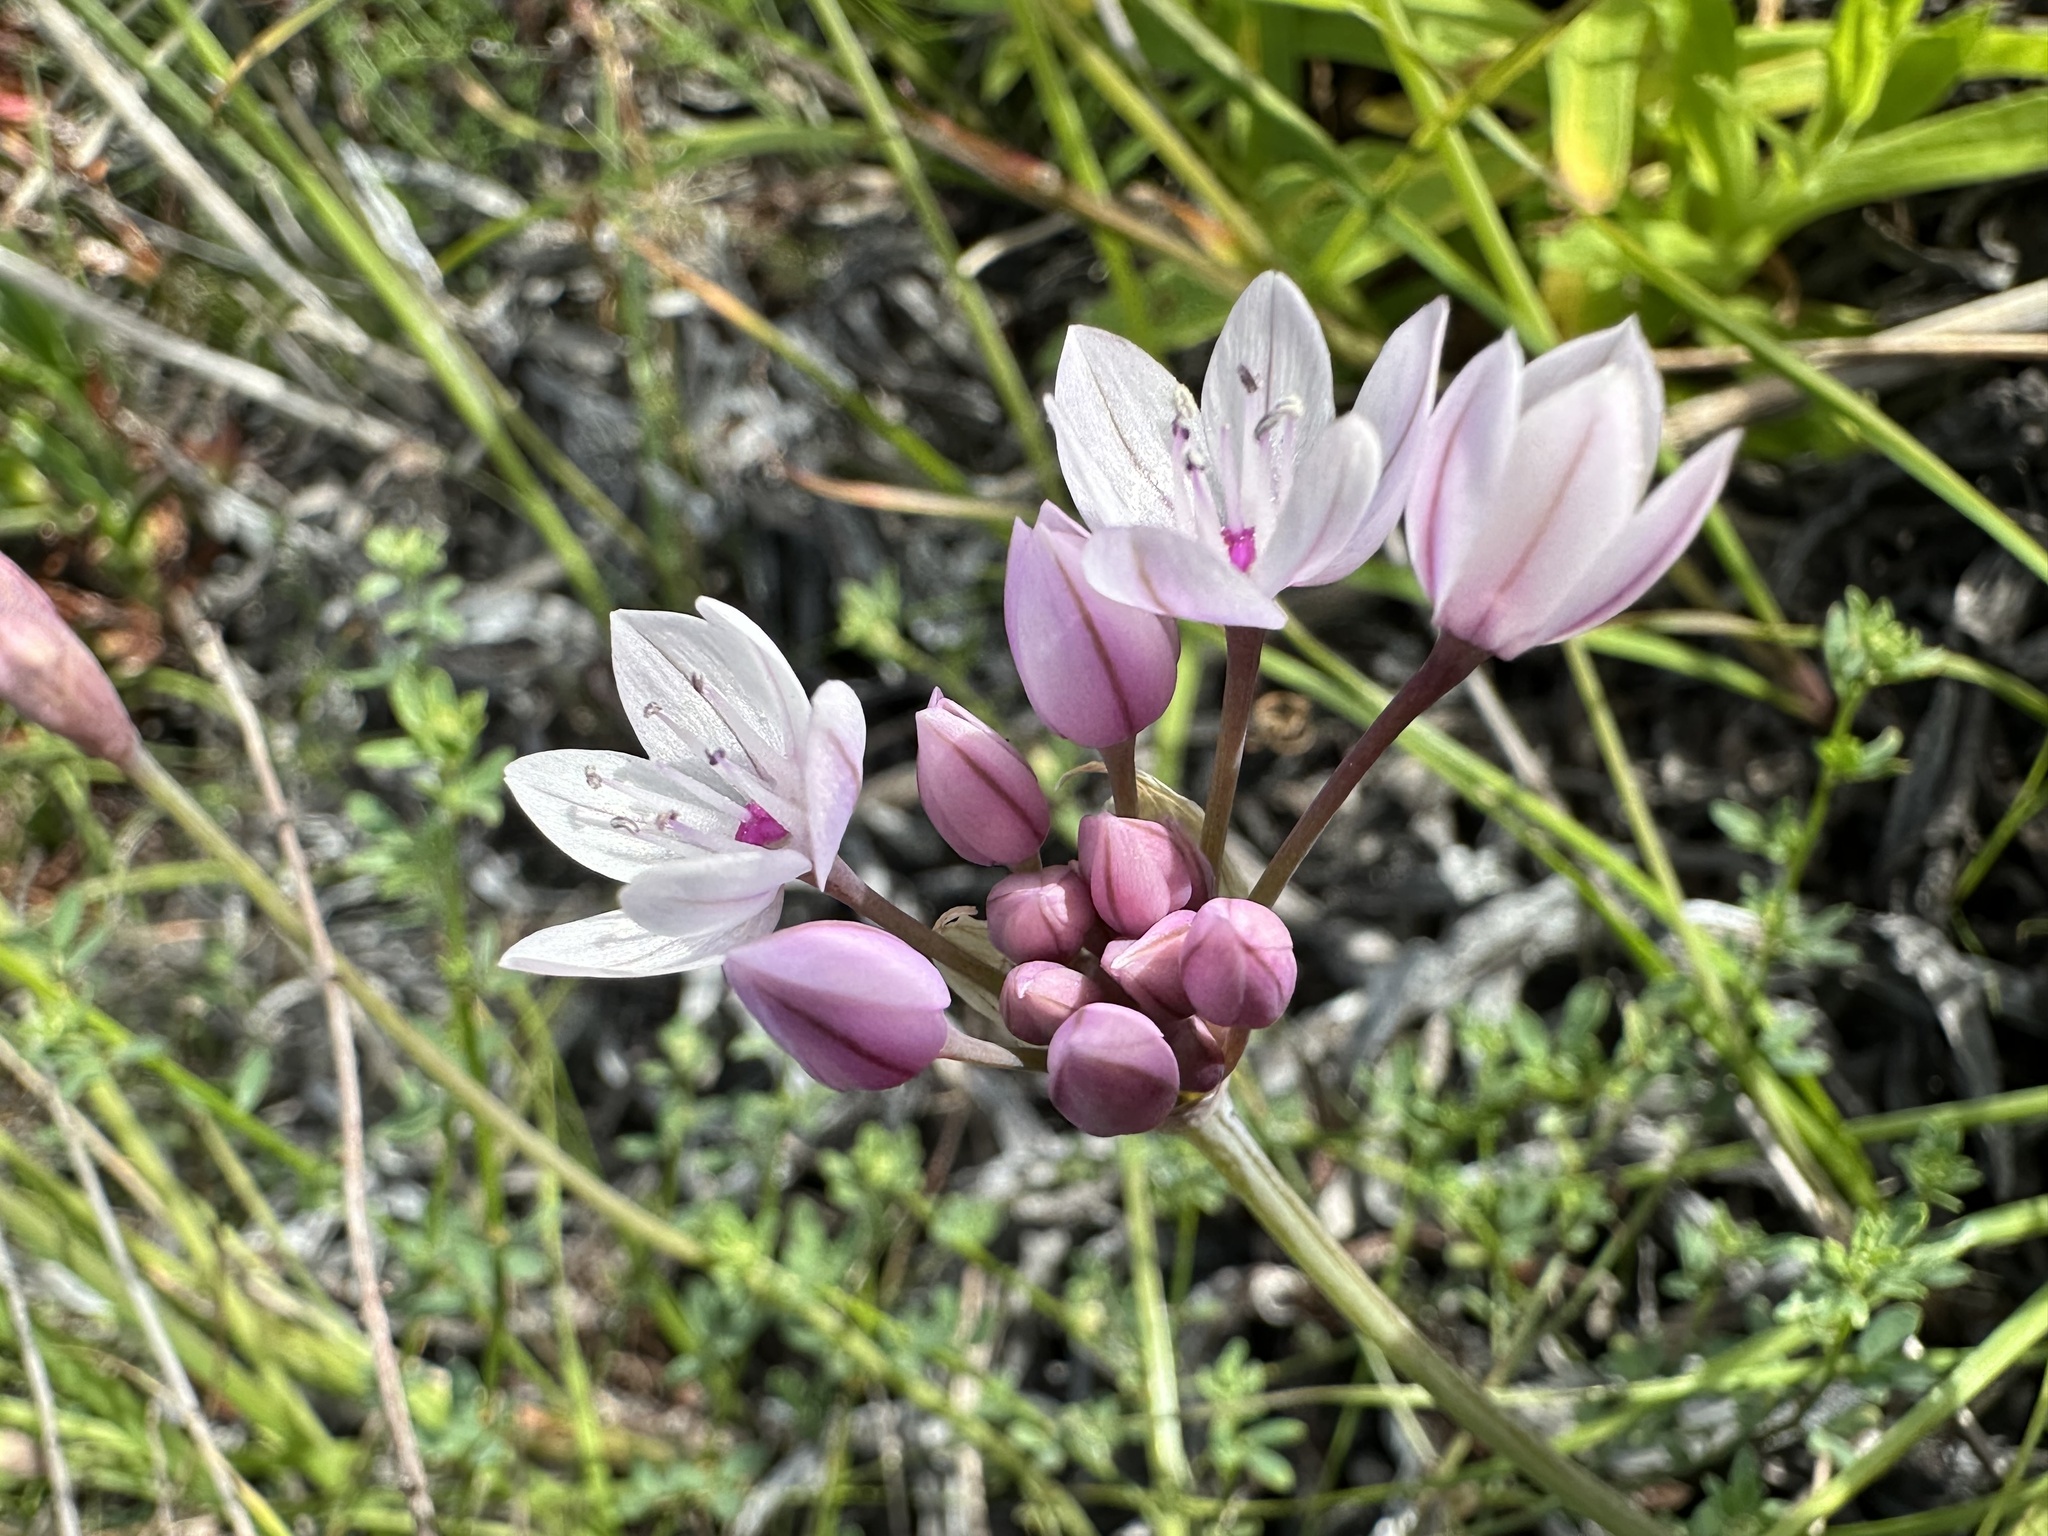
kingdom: Plantae
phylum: Tracheophyta
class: Liliopsida
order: Asparagales
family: Amaryllidaceae
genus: Allium
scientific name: Allium praecox
